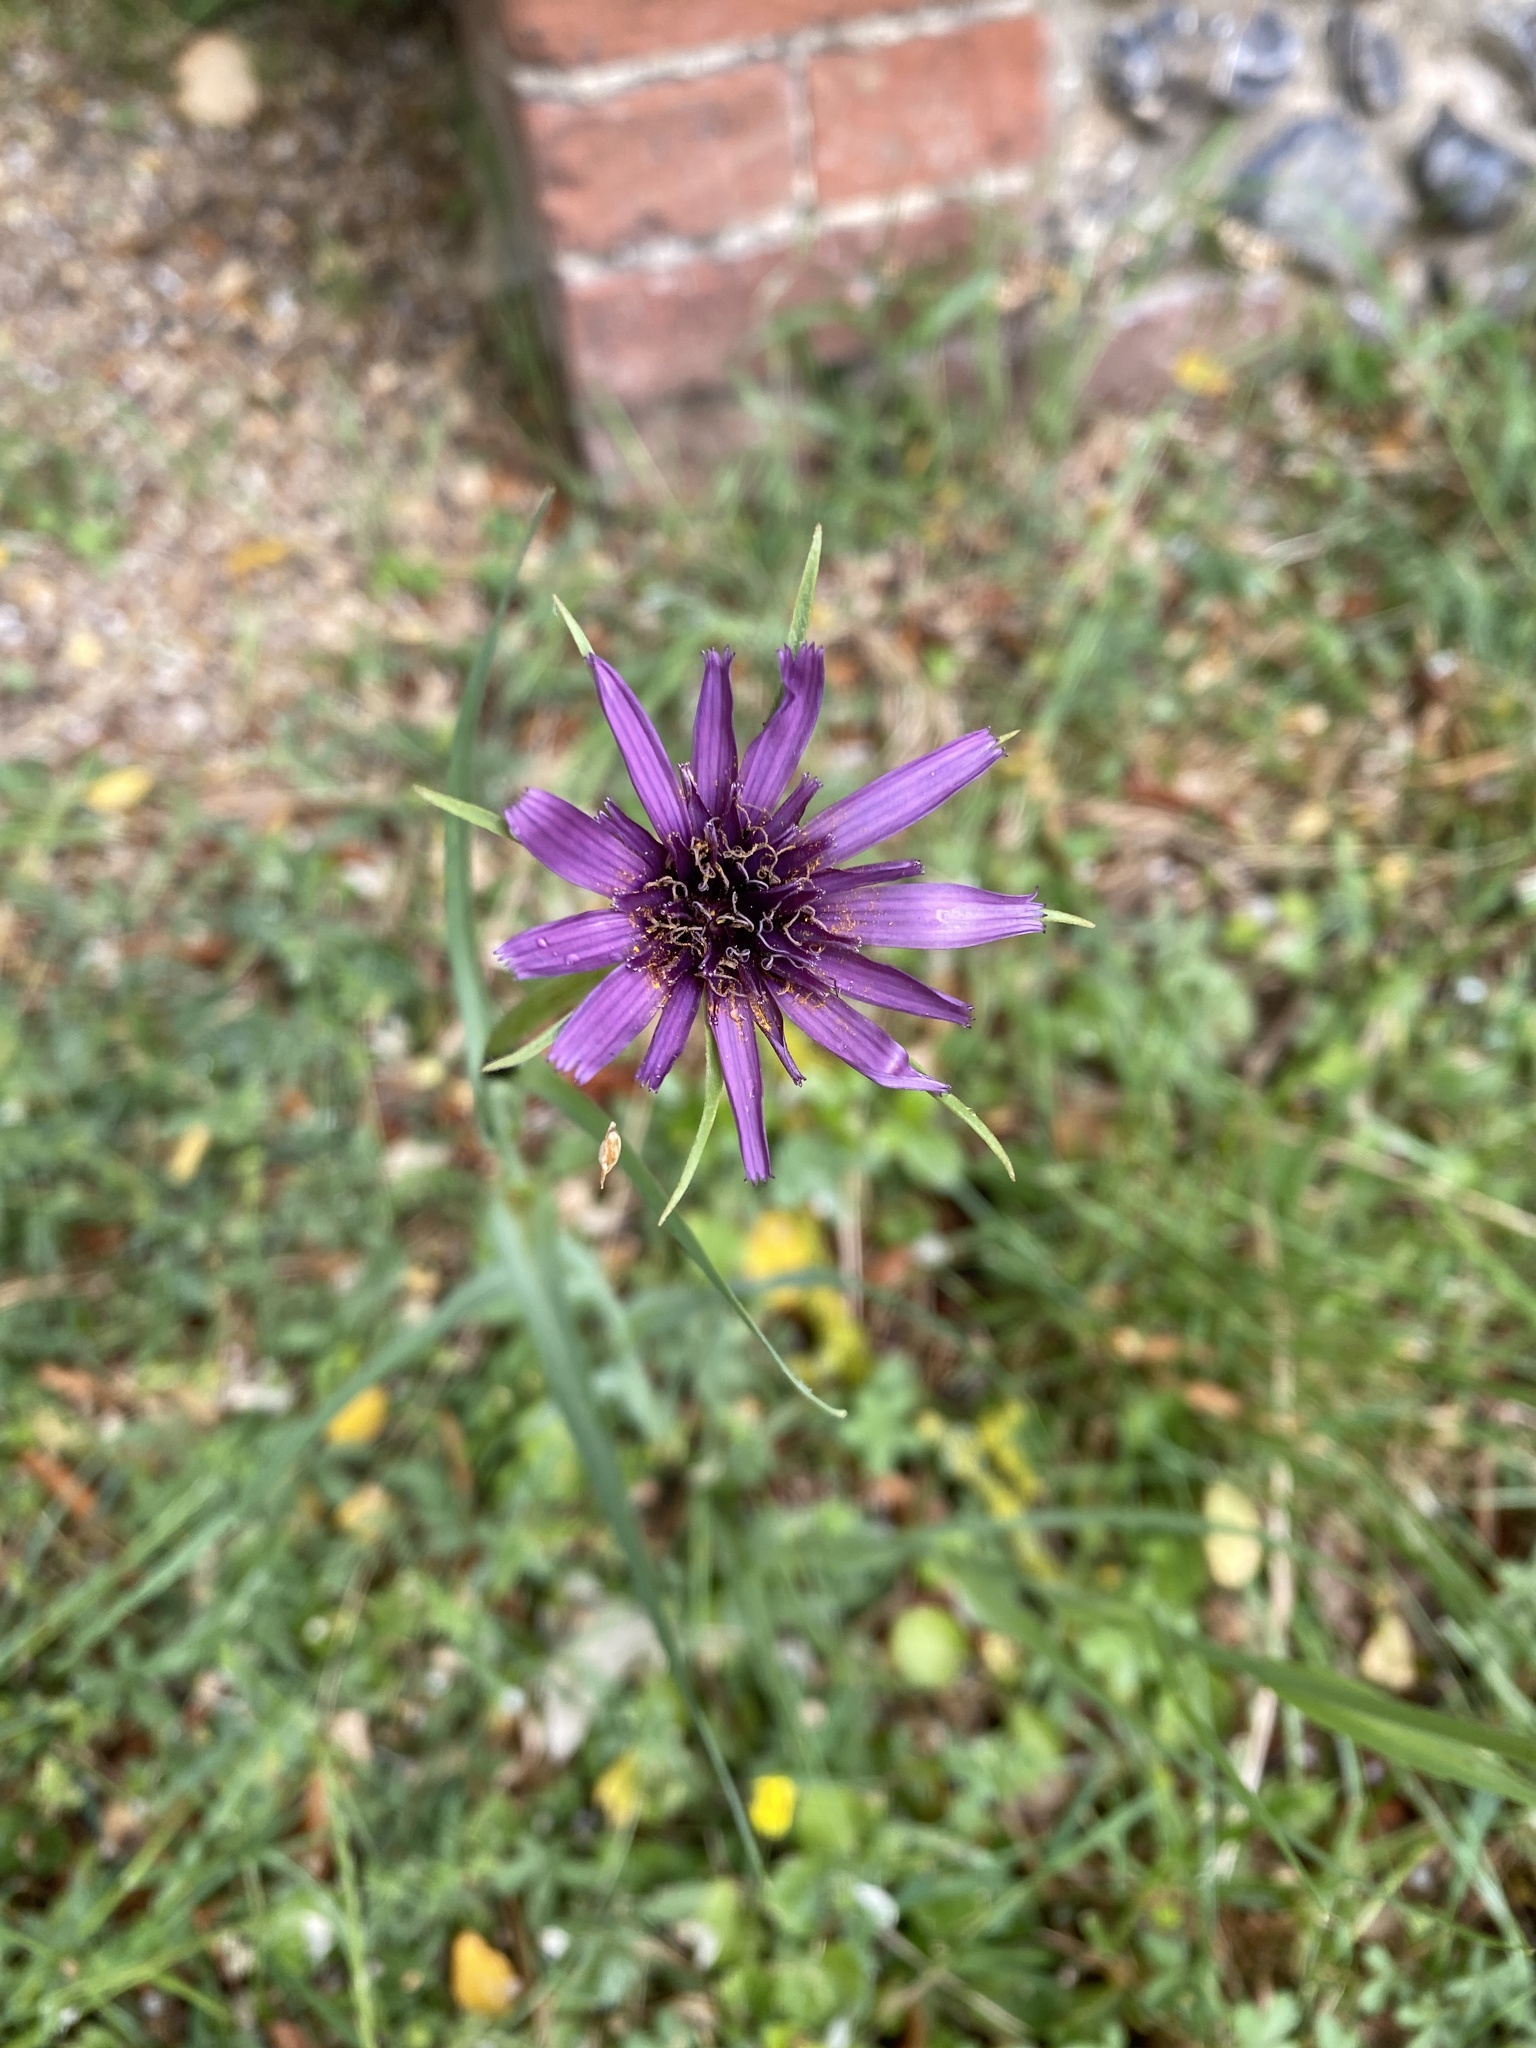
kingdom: Plantae
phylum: Tracheophyta
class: Magnoliopsida
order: Asterales
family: Asteraceae
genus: Tragopogon
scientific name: Tragopogon porrifolius
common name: Salsify
